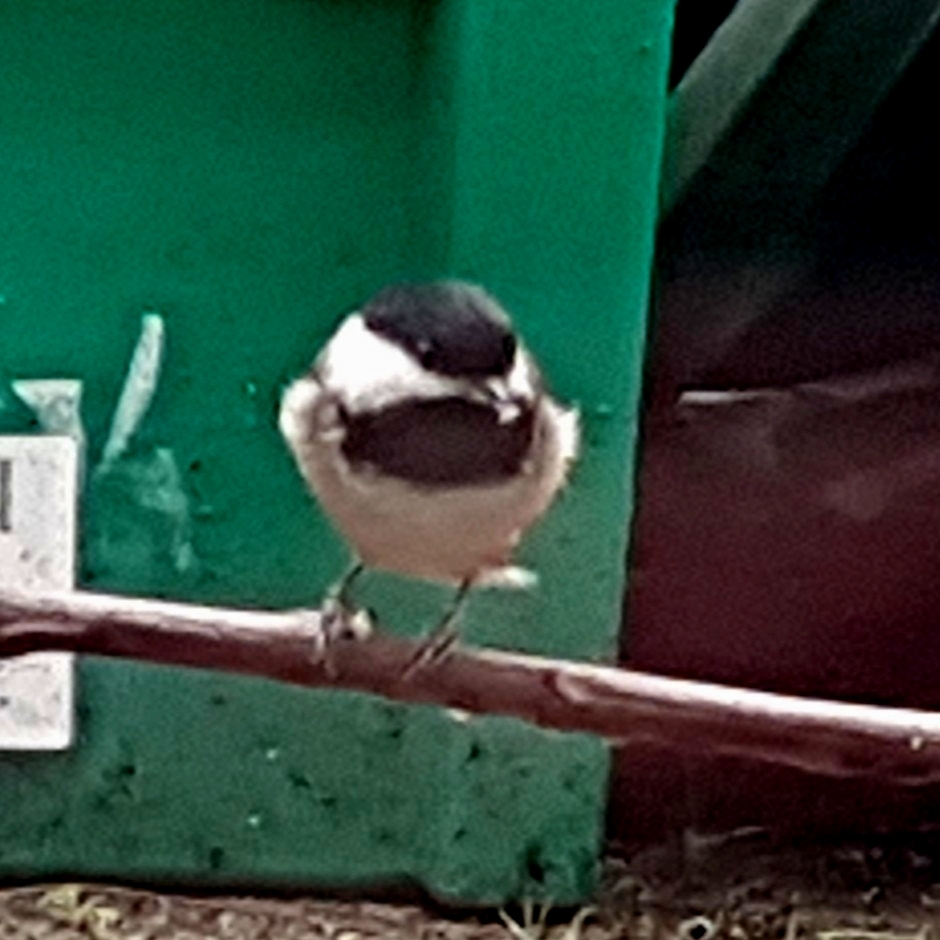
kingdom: Animalia
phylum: Chordata
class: Aves
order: Passeriformes
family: Paridae
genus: Poecile
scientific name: Poecile atricapillus
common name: Black-capped chickadee
